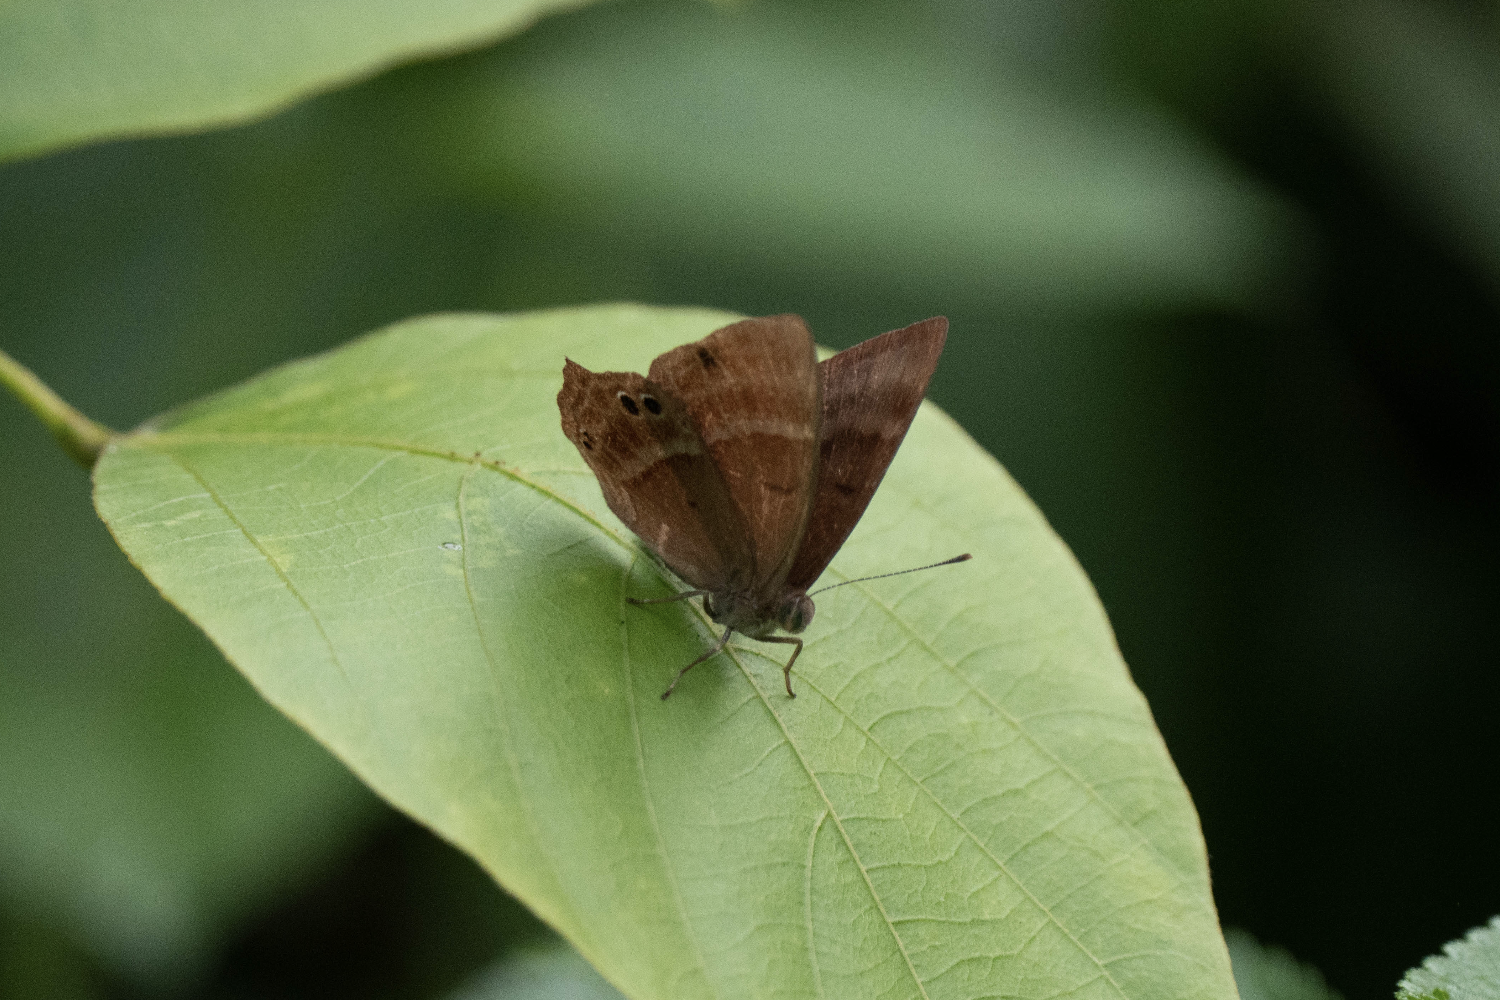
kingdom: Animalia
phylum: Arthropoda
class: Insecta
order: Lepidoptera
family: Lycaenidae
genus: Abisara
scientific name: Abisara echeria
